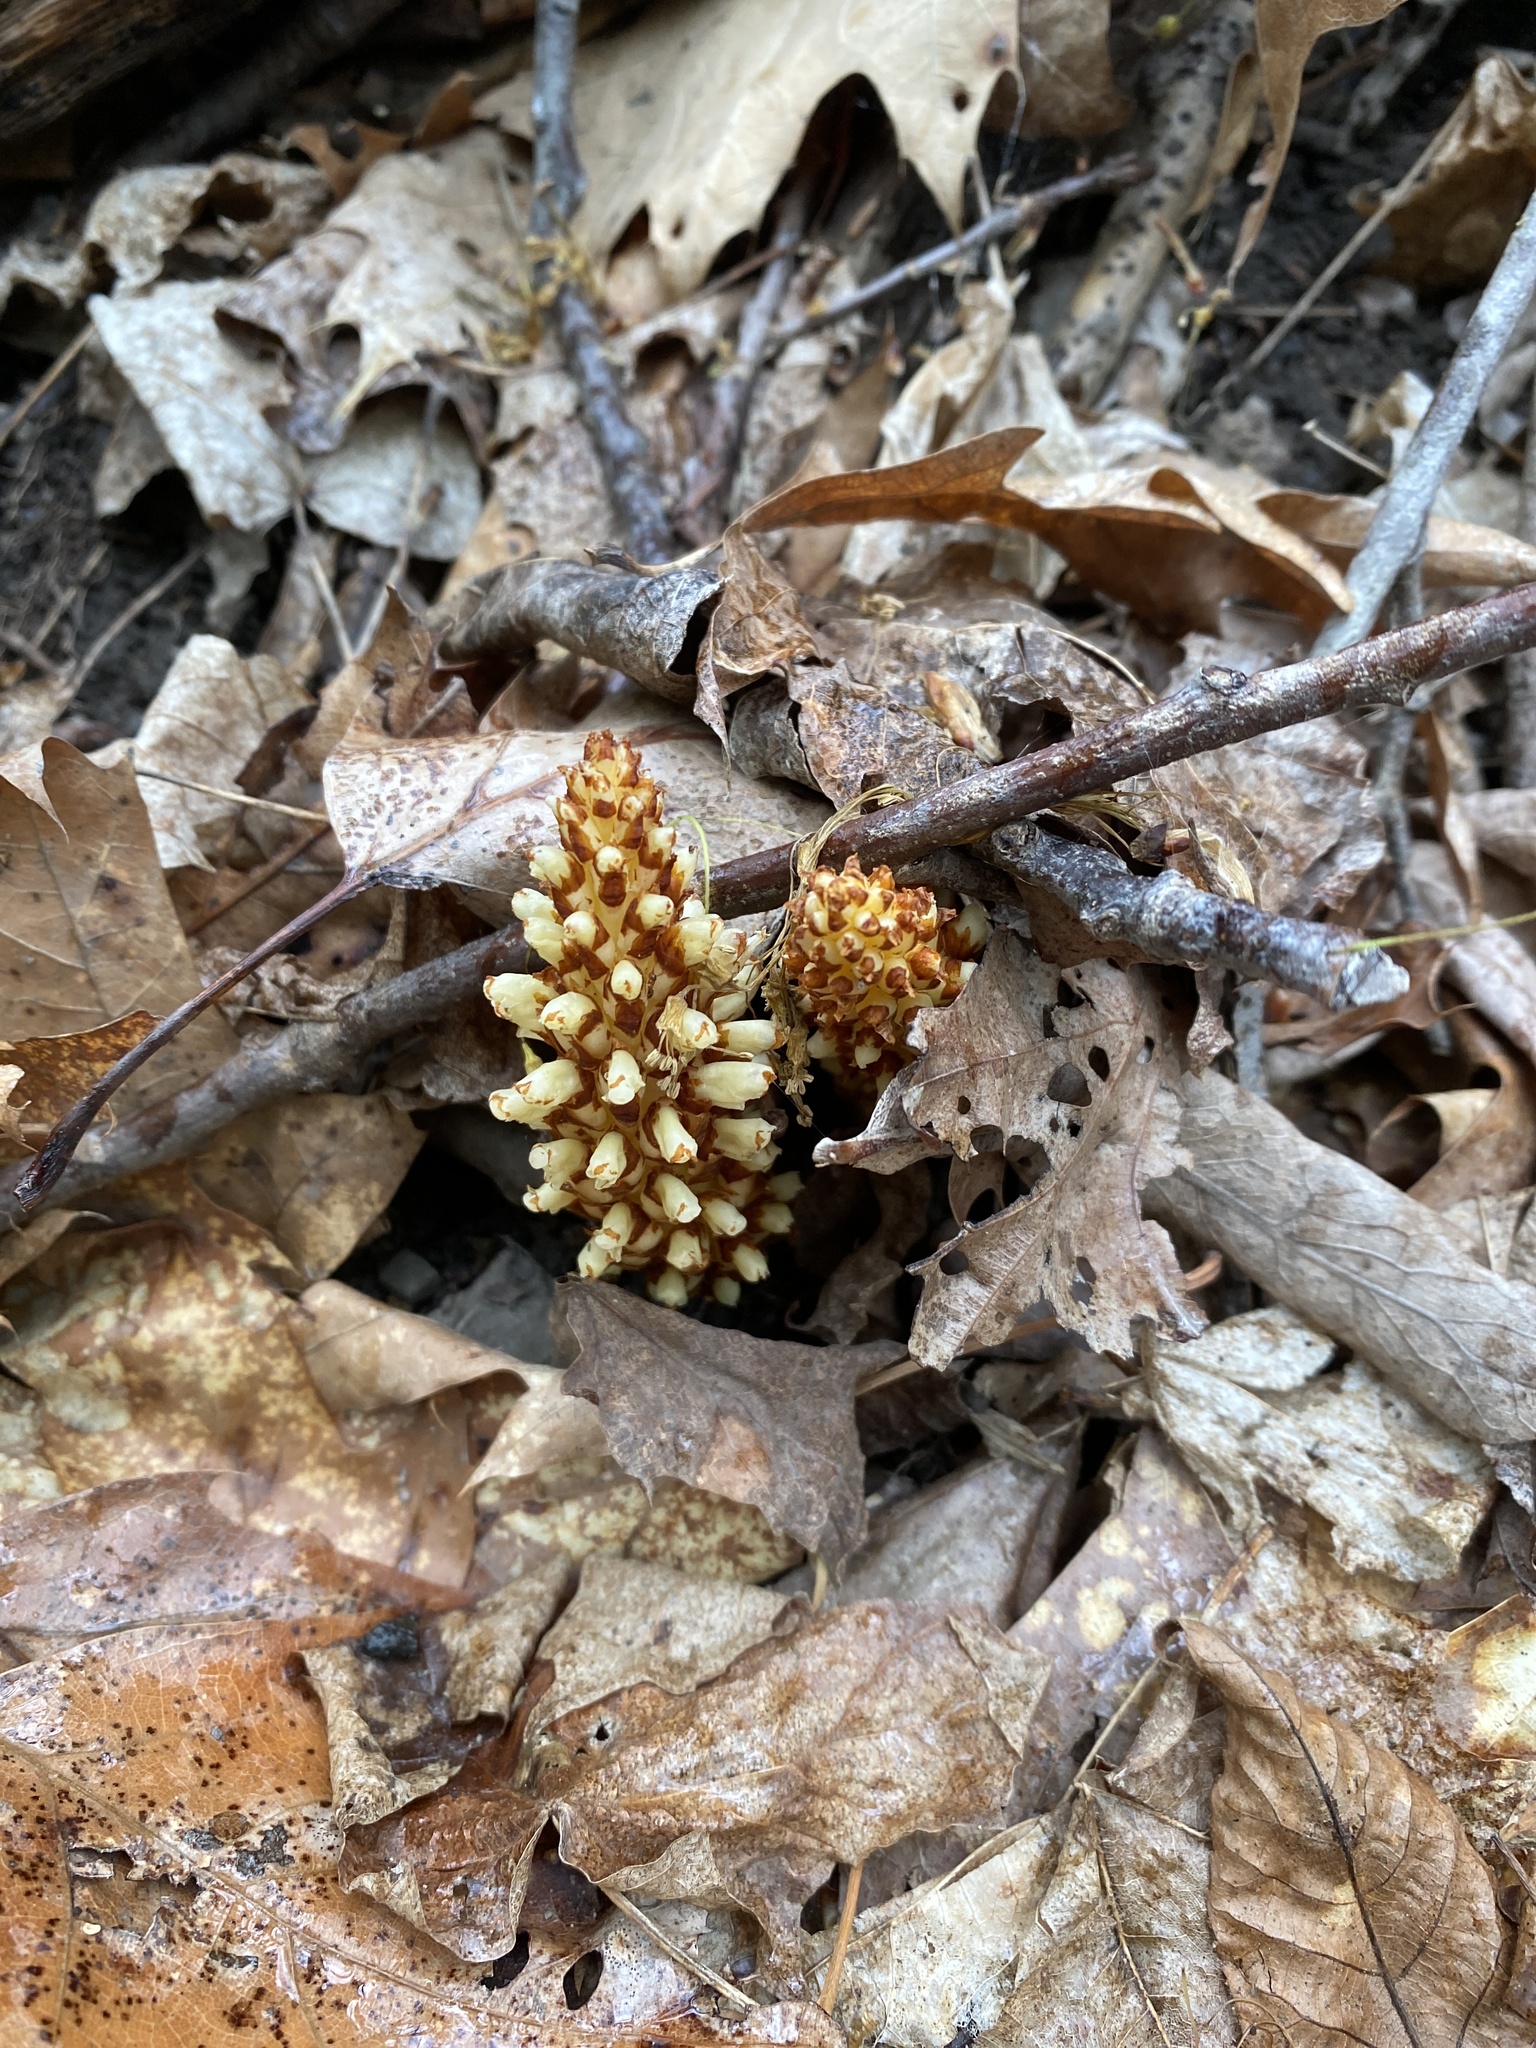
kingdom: Plantae
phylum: Tracheophyta
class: Magnoliopsida
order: Lamiales
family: Orobanchaceae
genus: Conopholis
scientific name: Conopholis americana
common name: American cancer-root
